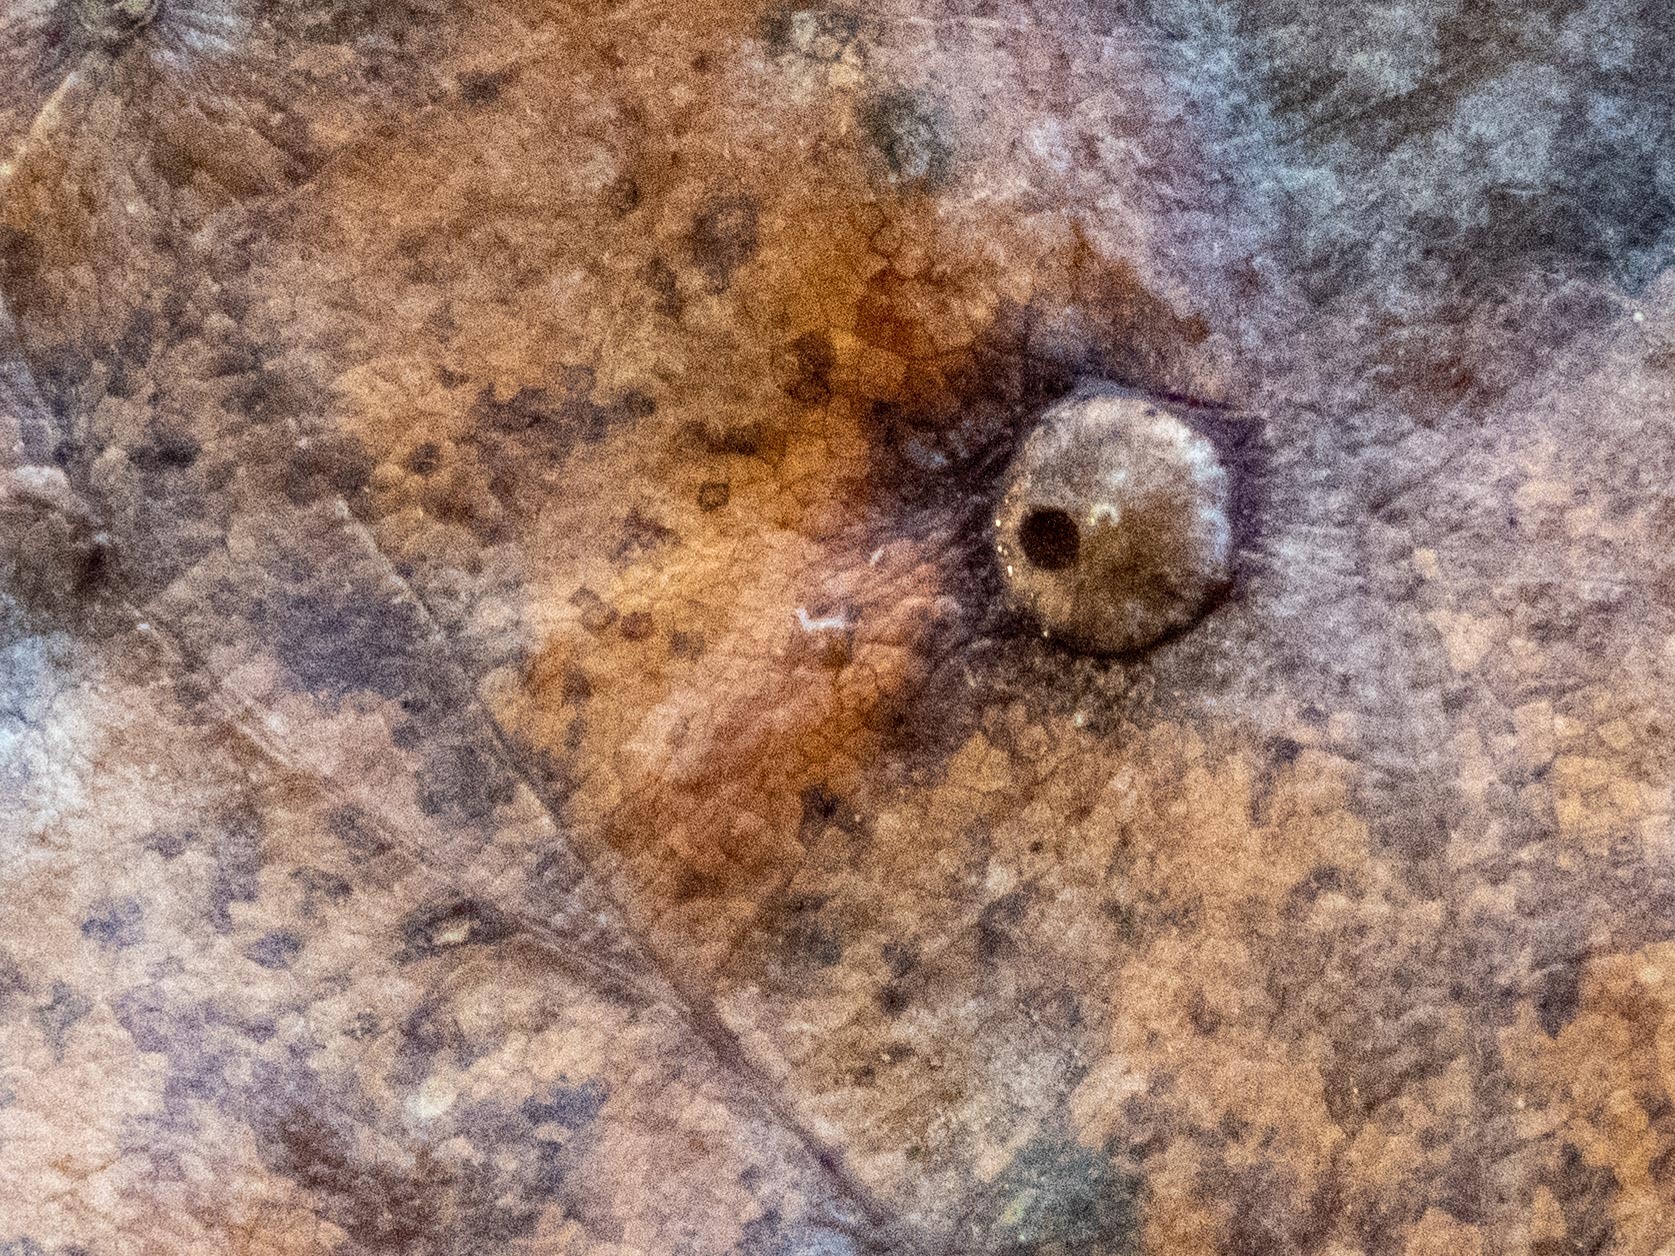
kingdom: Animalia
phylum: Arthropoda
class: Insecta
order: Hymenoptera
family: Cynipidae
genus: Neuroterus
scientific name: Neuroterus numismalis
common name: Silk-button spangle gall
